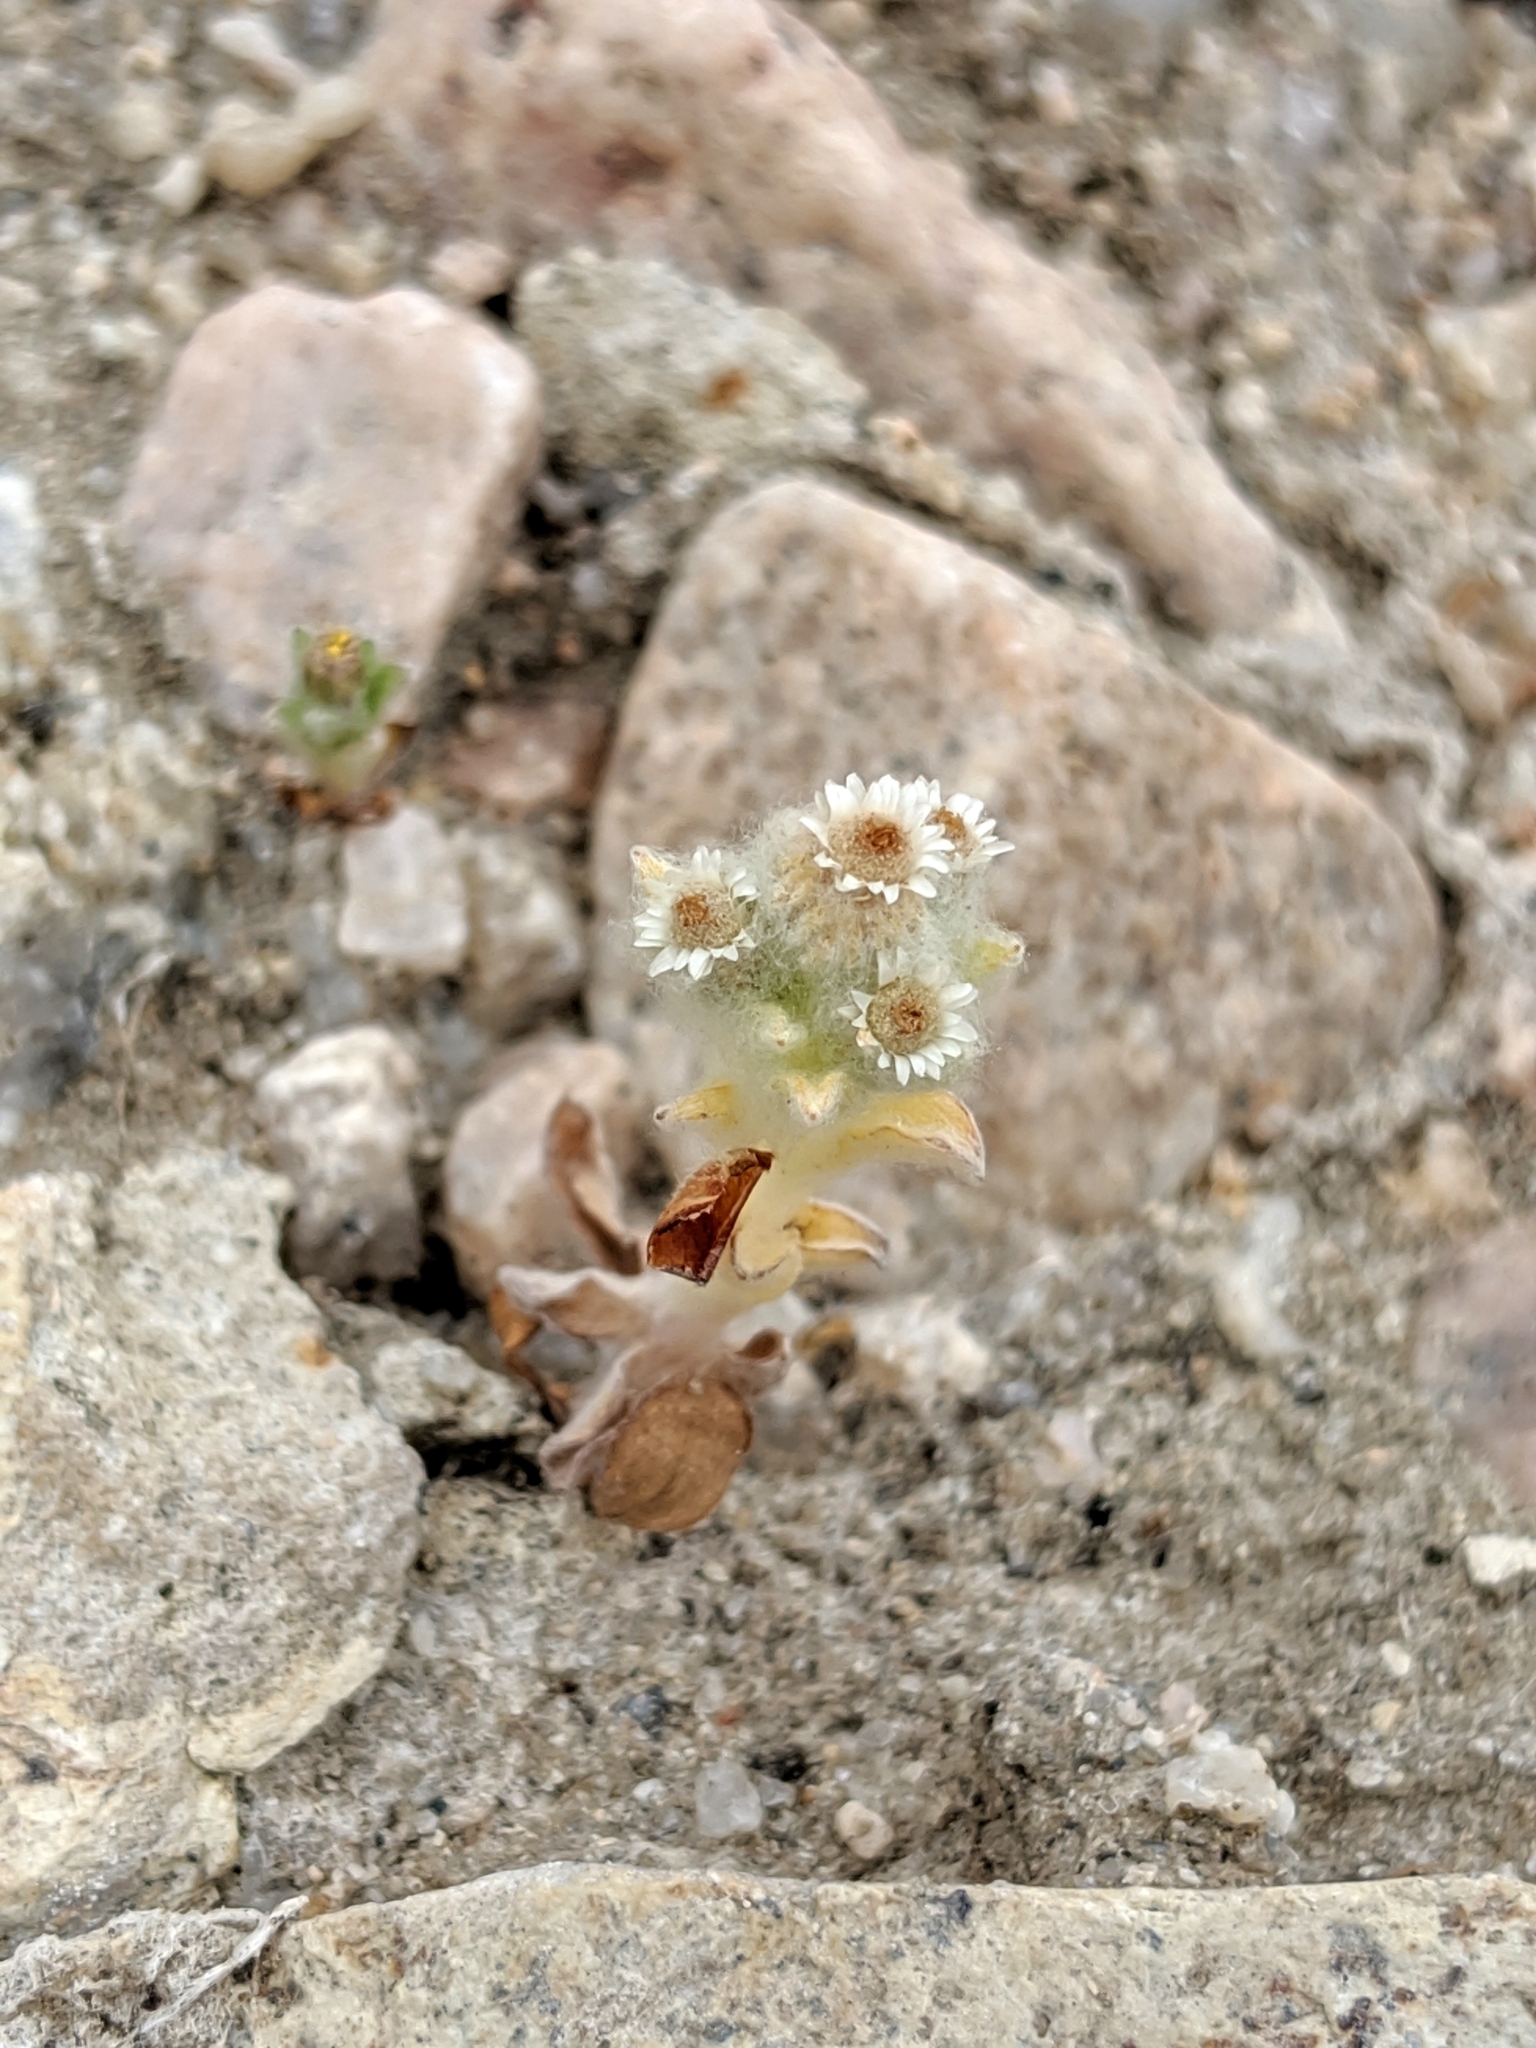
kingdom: Plantae
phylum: Tracheophyta
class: Magnoliopsida
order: Asterales
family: Asteraceae
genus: Gnaphalium
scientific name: Gnaphalium palustre
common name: Western marsh cudweed
